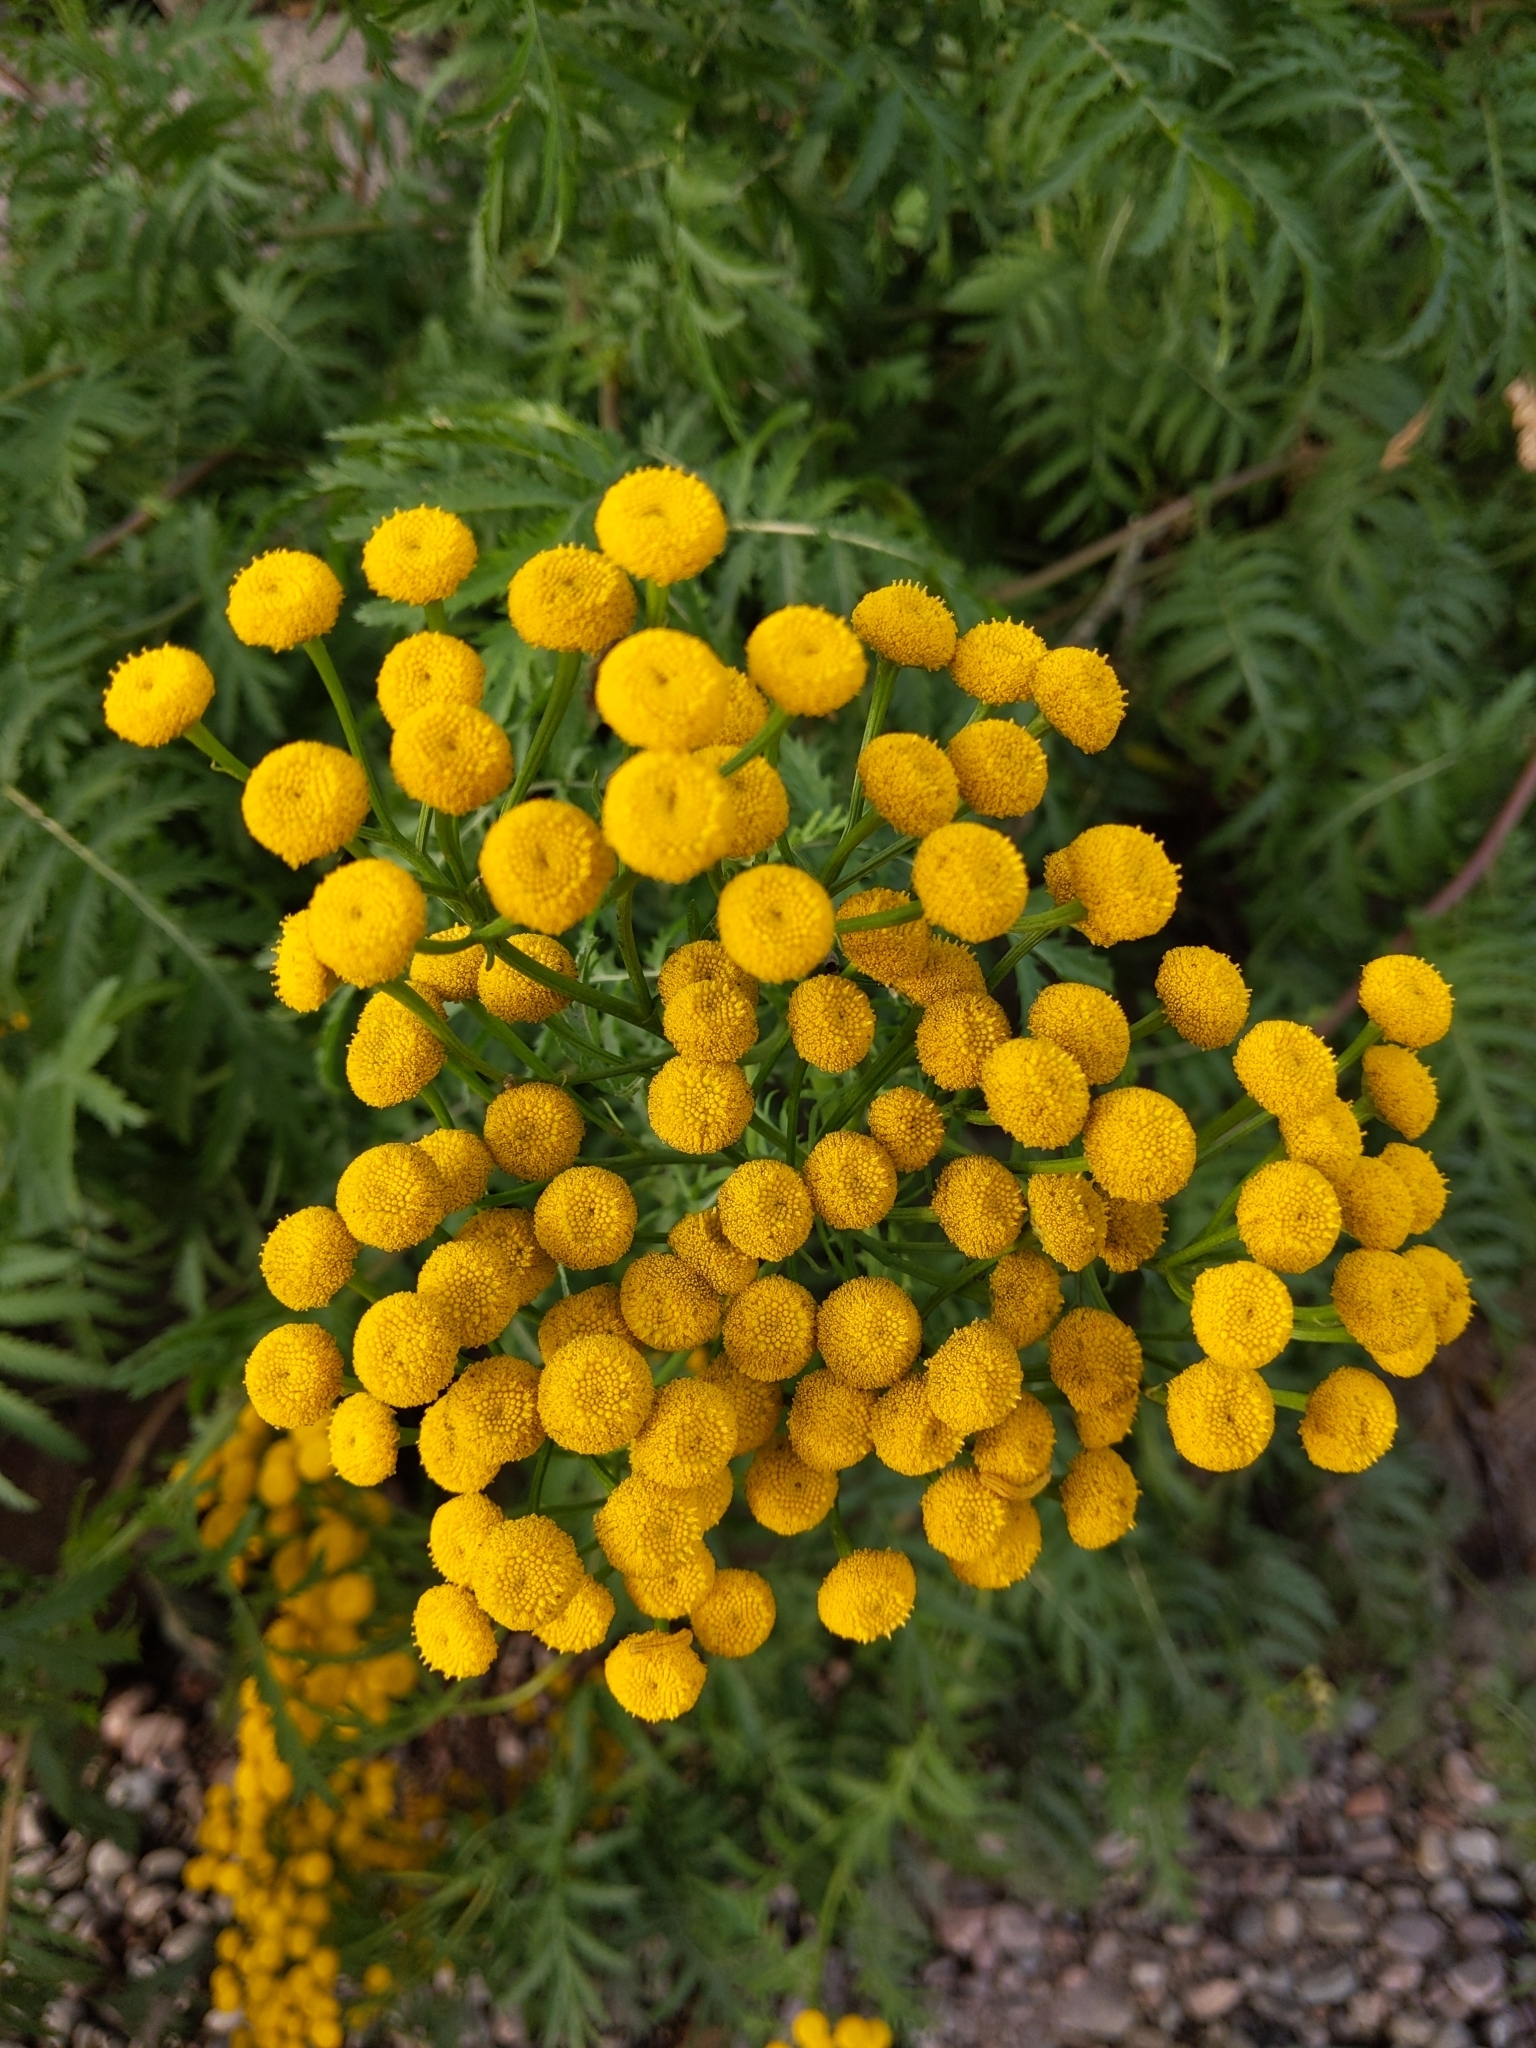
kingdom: Plantae
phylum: Tracheophyta
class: Magnoliopsida
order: Asterales
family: Asteraceae
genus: Tanacetum
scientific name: Tanacetum vulgare
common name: Common tansy
